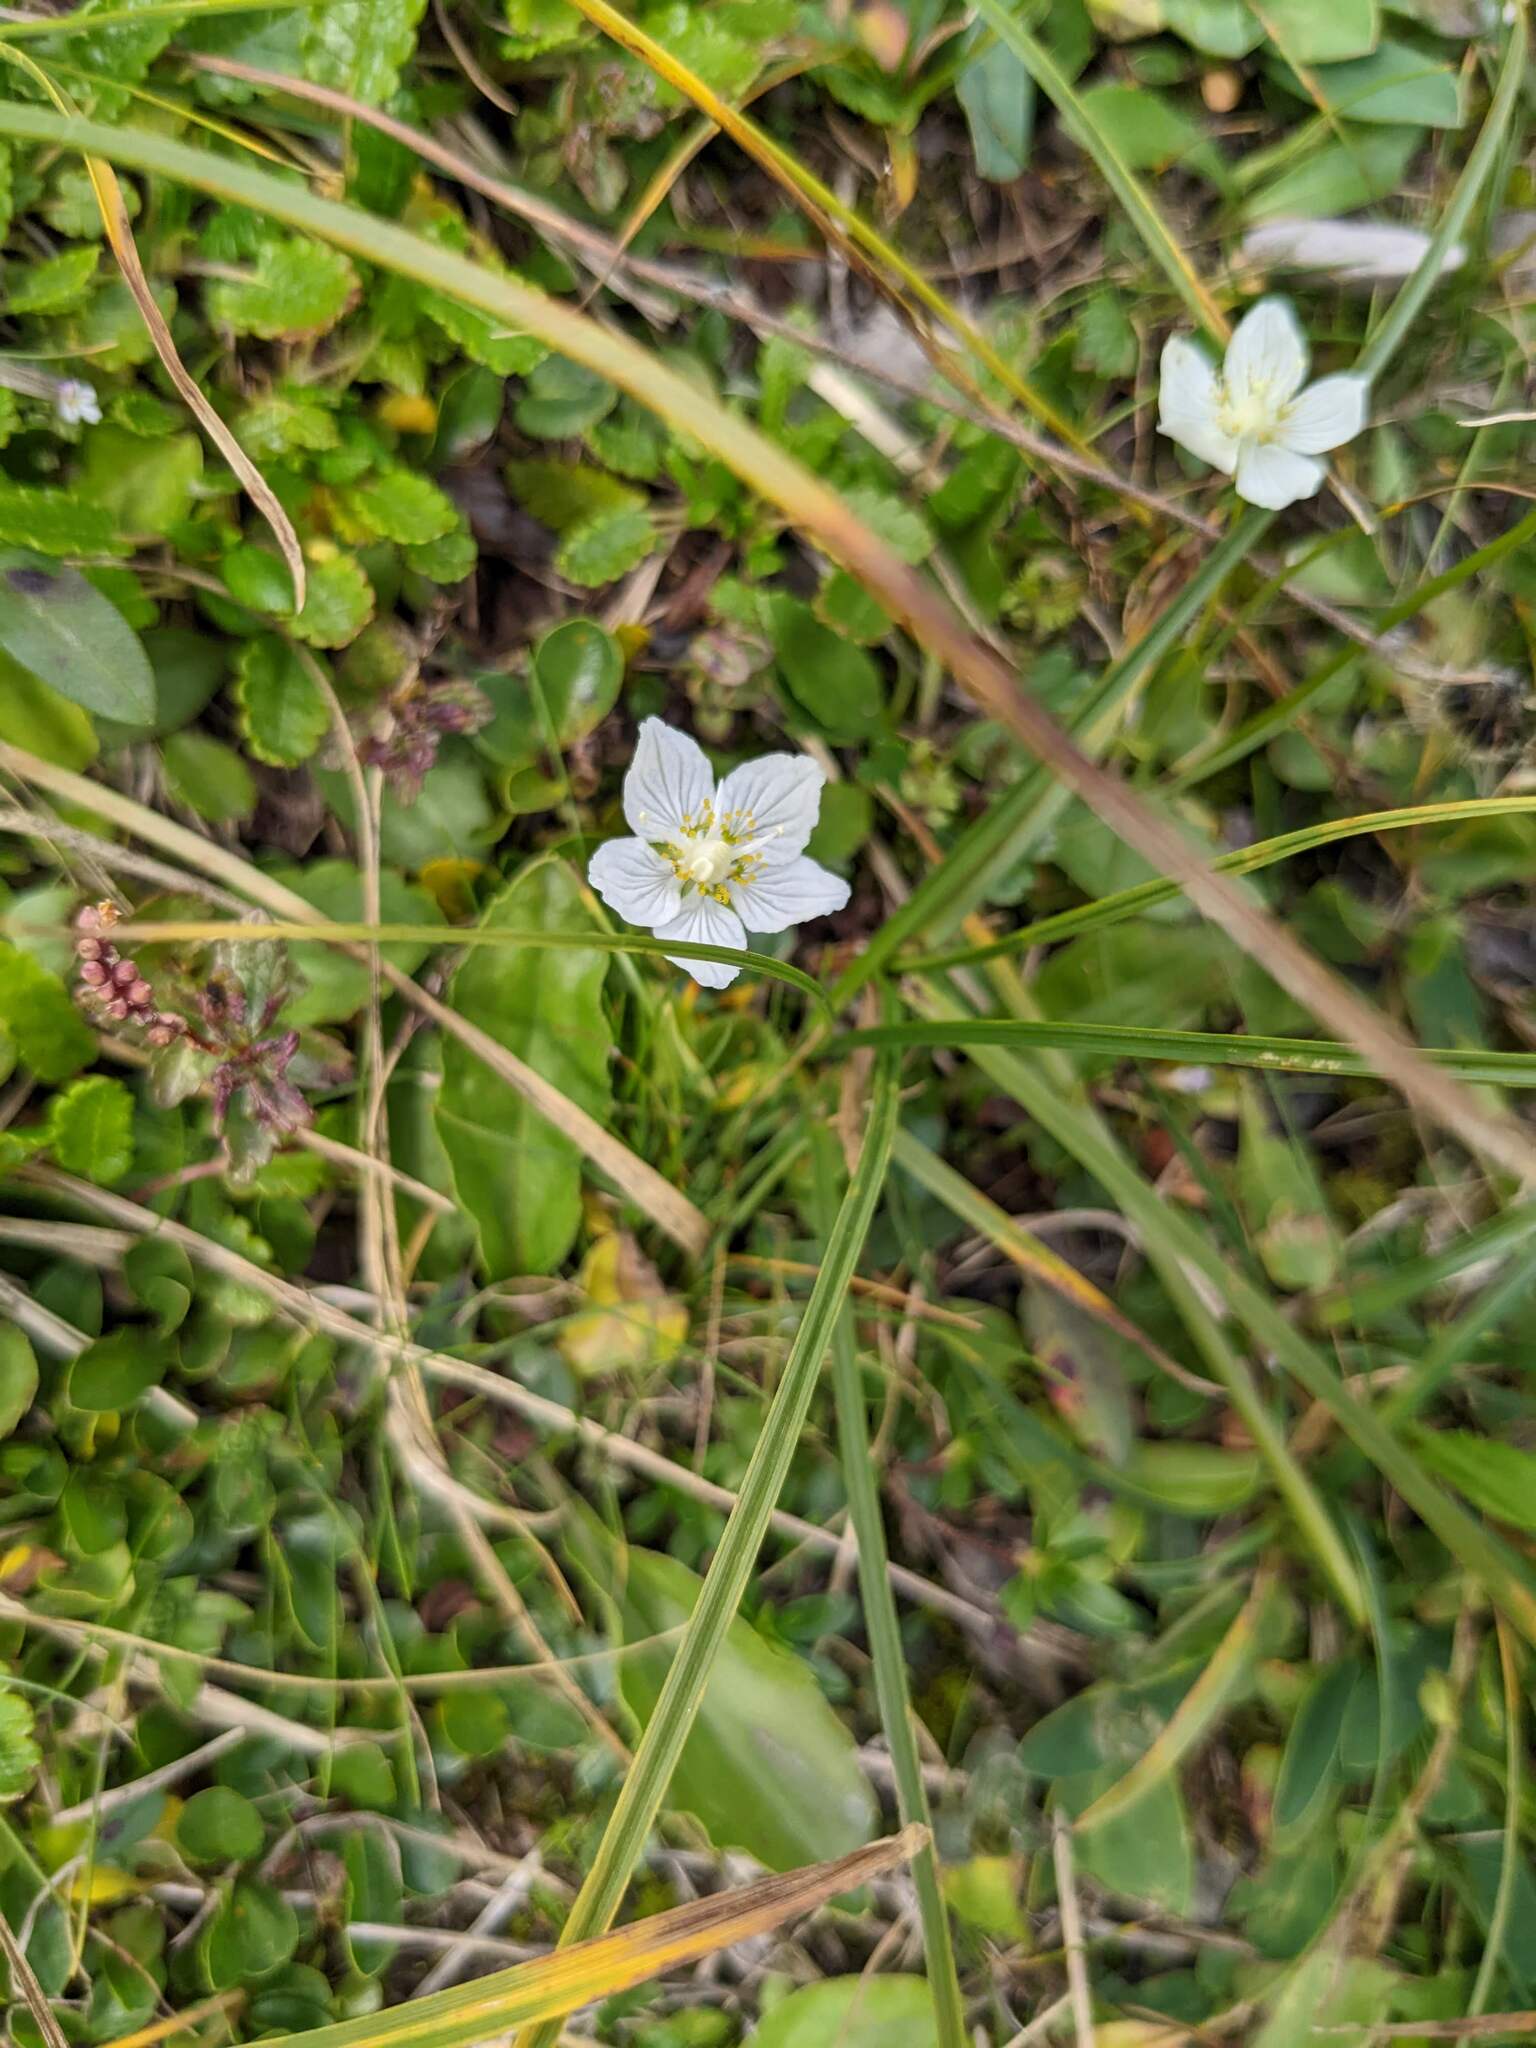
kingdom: Plantae
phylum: Tracheophyta
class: Magnoliopsida
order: Celastrales
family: Parnassiaceae
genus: Parnassia
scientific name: Parnassia palustris
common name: Grass-of-parnassus
